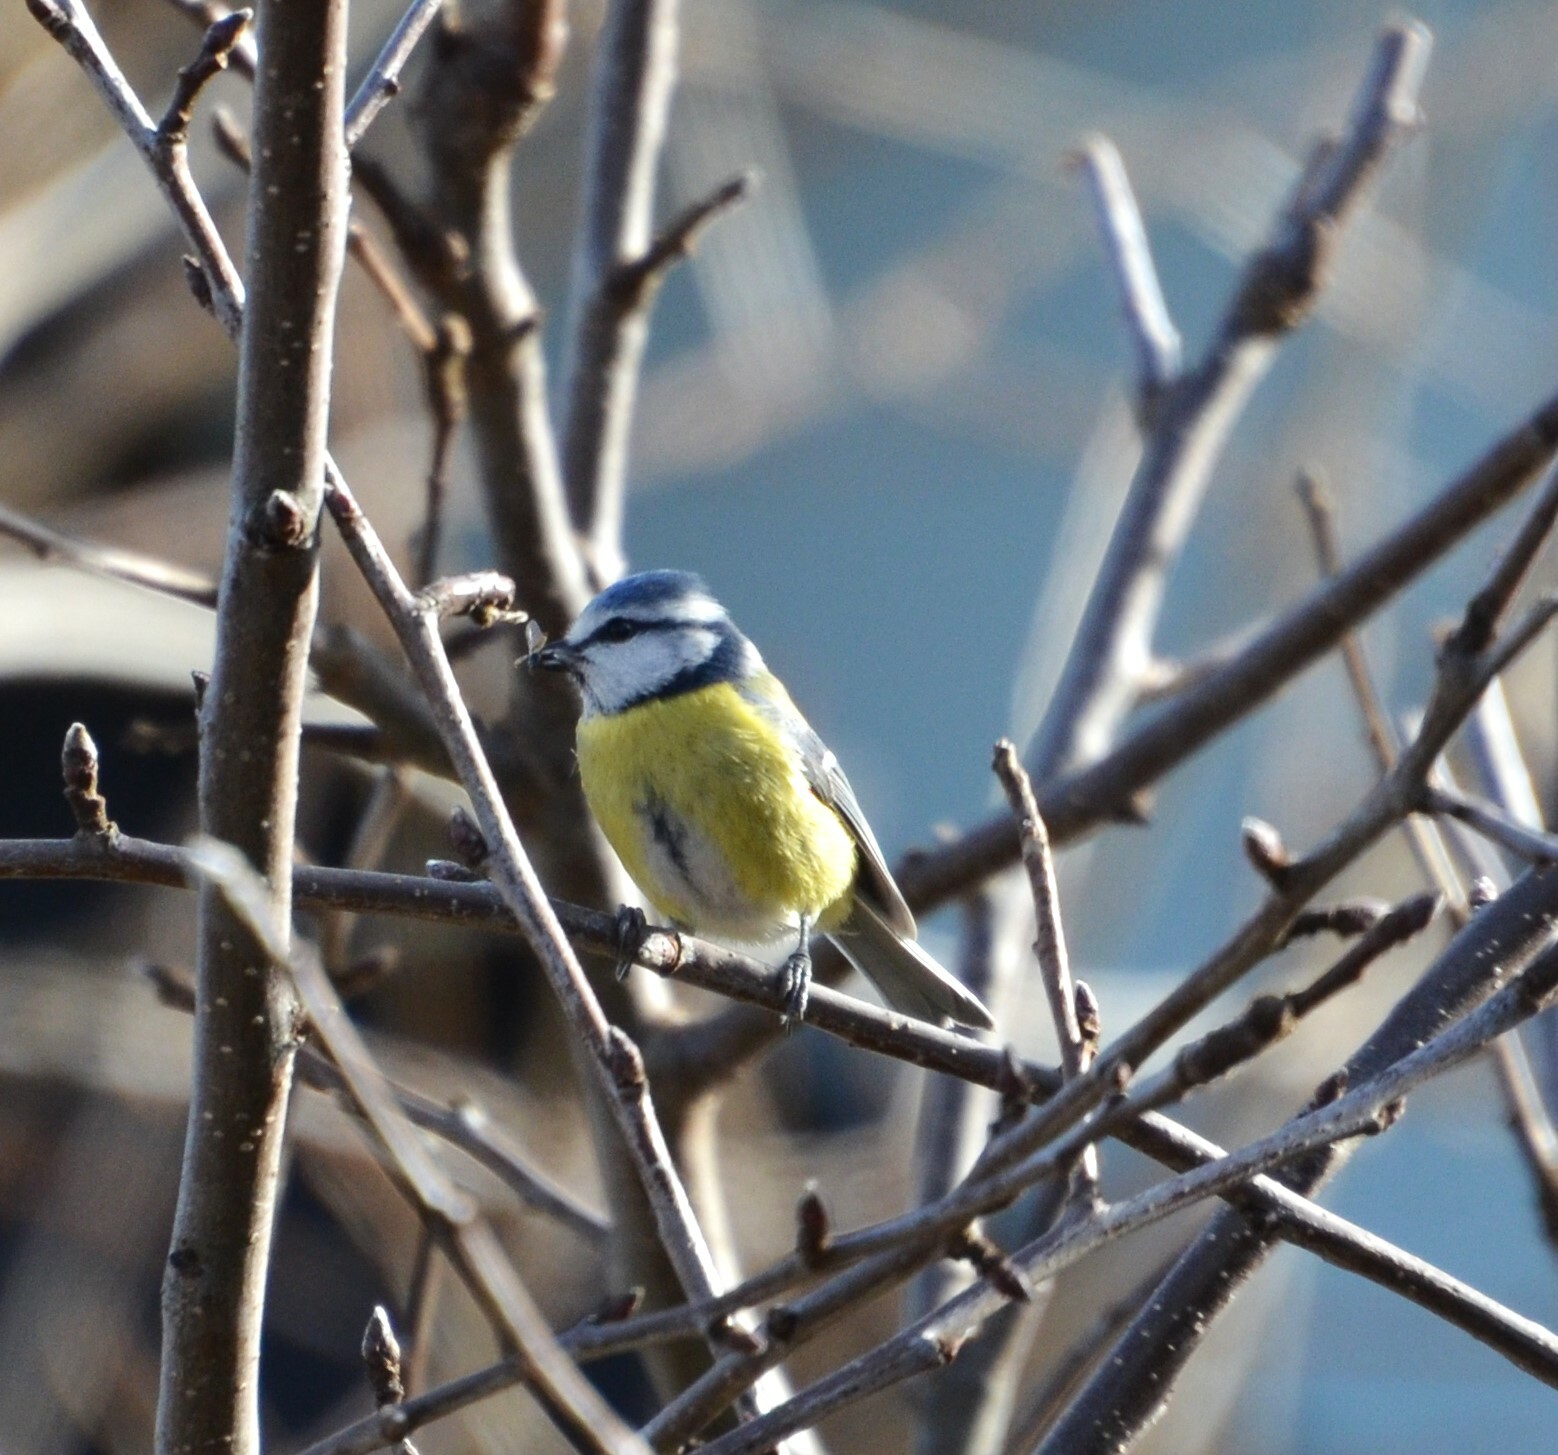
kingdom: Animalia
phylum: Chordata
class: Aves
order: Passeriformes
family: Paridae
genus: Cyanistes
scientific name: Cyanistes caeruleus
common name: Eurasian blue tit
